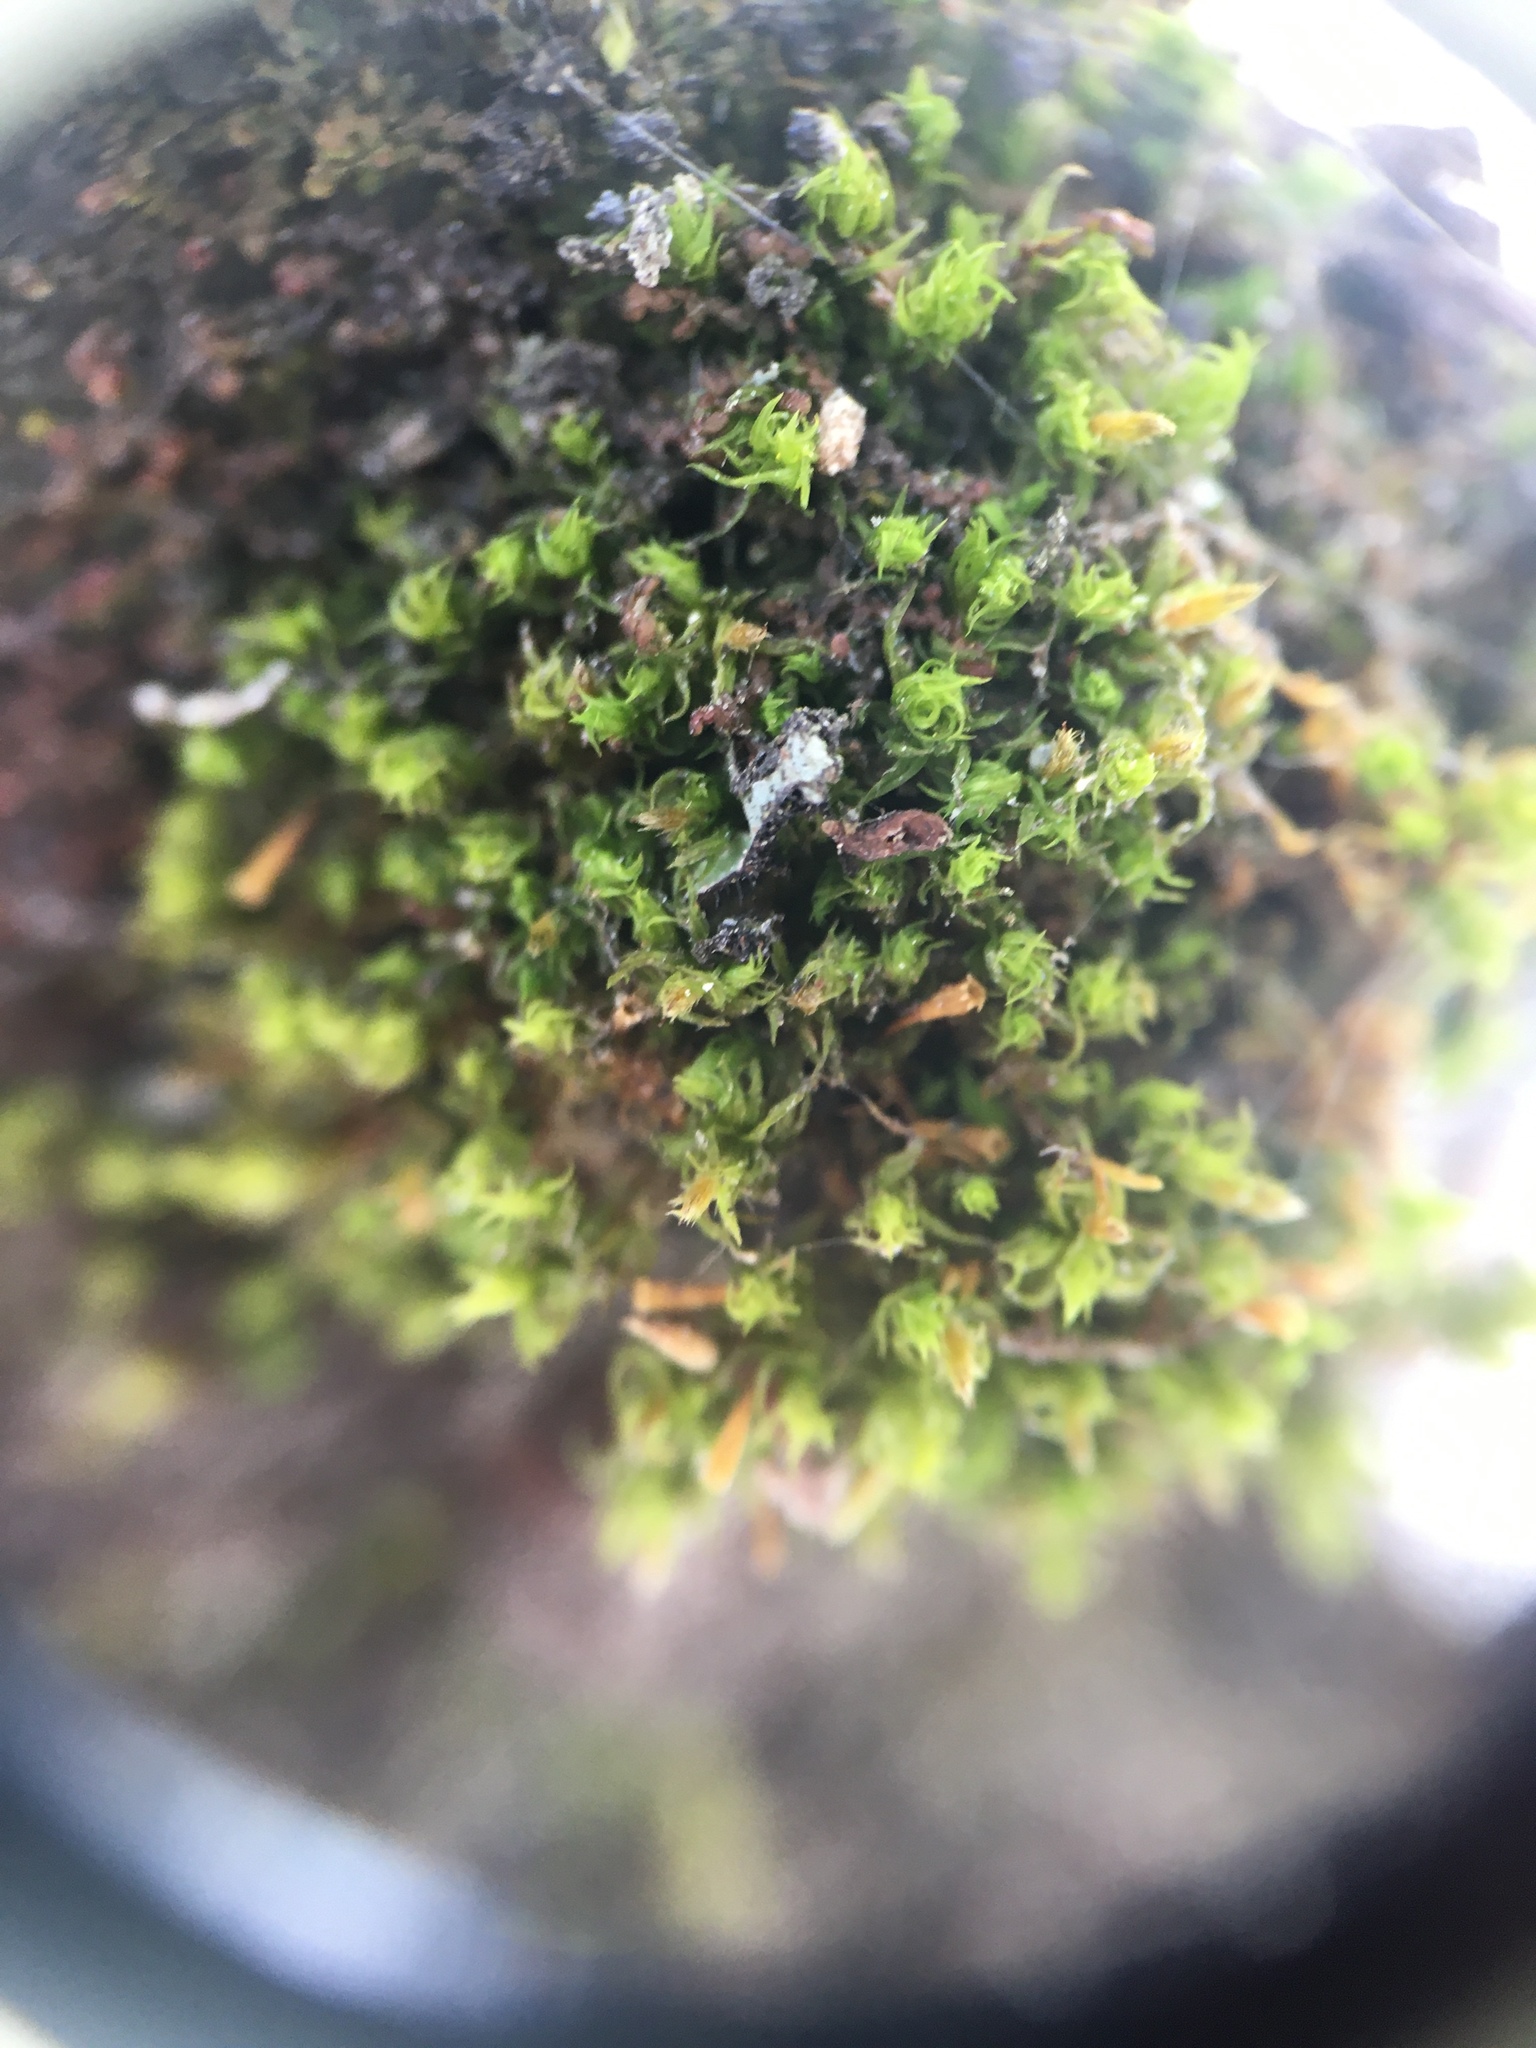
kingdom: Plantae
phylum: Bryophyta
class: Bryopsida
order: Orthotrichales
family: Orthotrichaceae
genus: Ulota
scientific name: Ulota crispa
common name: Crisped pincushion moss
